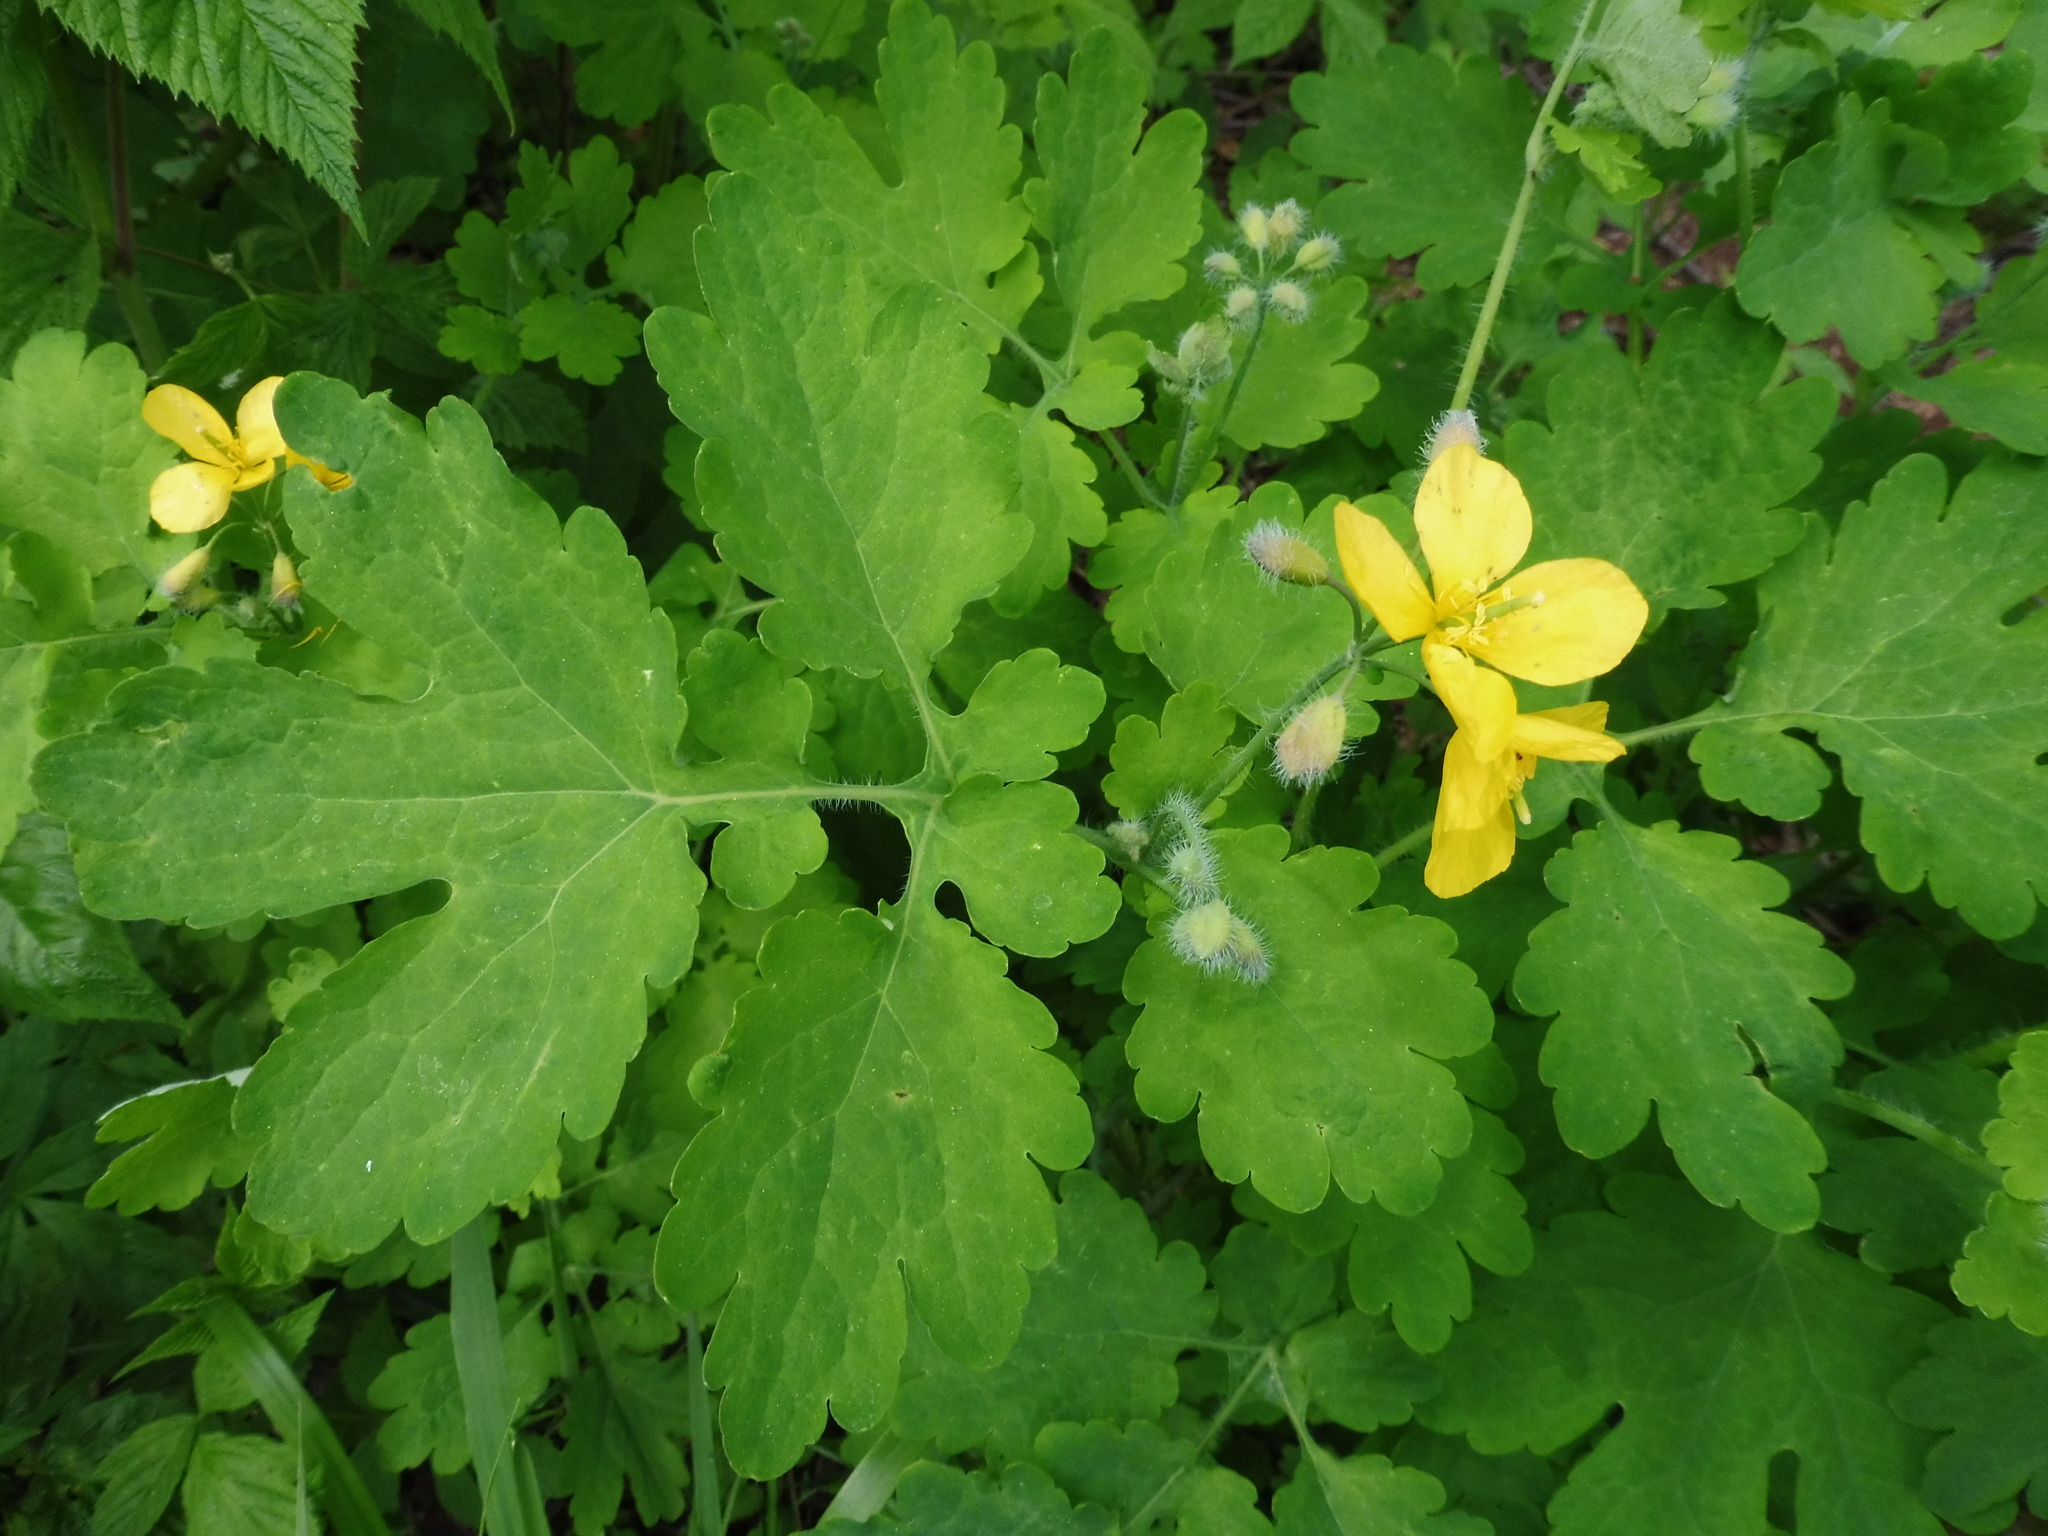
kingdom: Plantae
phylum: Tracheophyta
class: Magnoliopsida
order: Ranunculales
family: Papaveraceae
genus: Chelidonium
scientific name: Chelidonium majus
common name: Greater celandine
